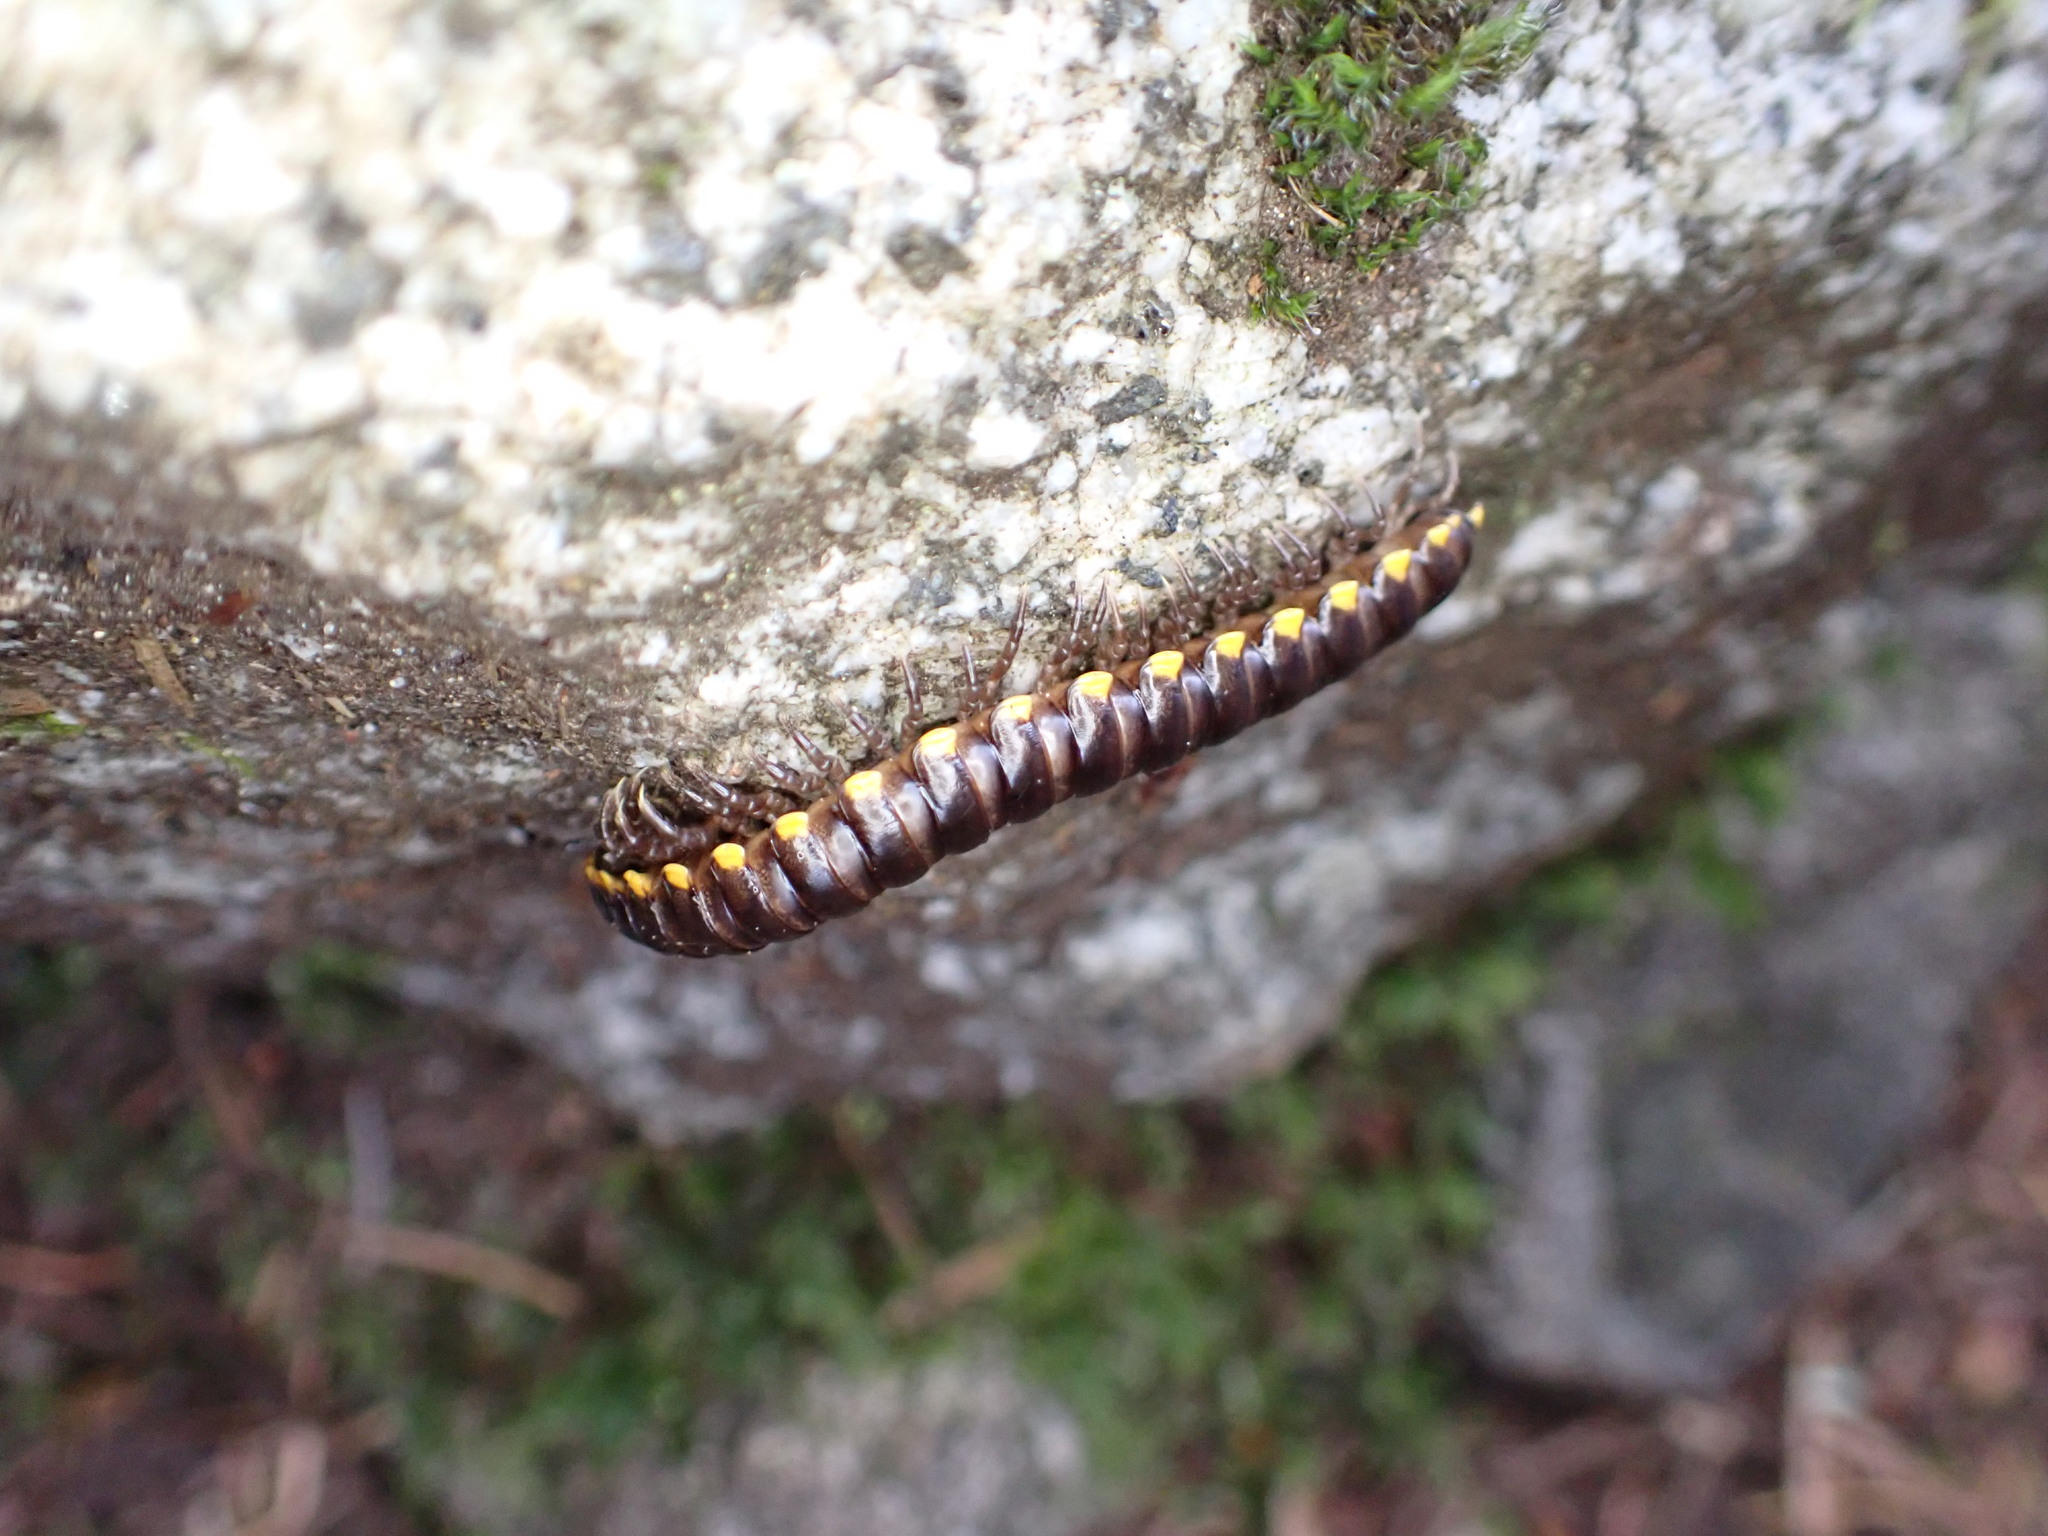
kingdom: Animalia
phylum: Arthropoda
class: Diplopoda
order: Polydesmida
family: Xystodesmidae
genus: Harpaphe
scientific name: Harpaphe haydeniana
